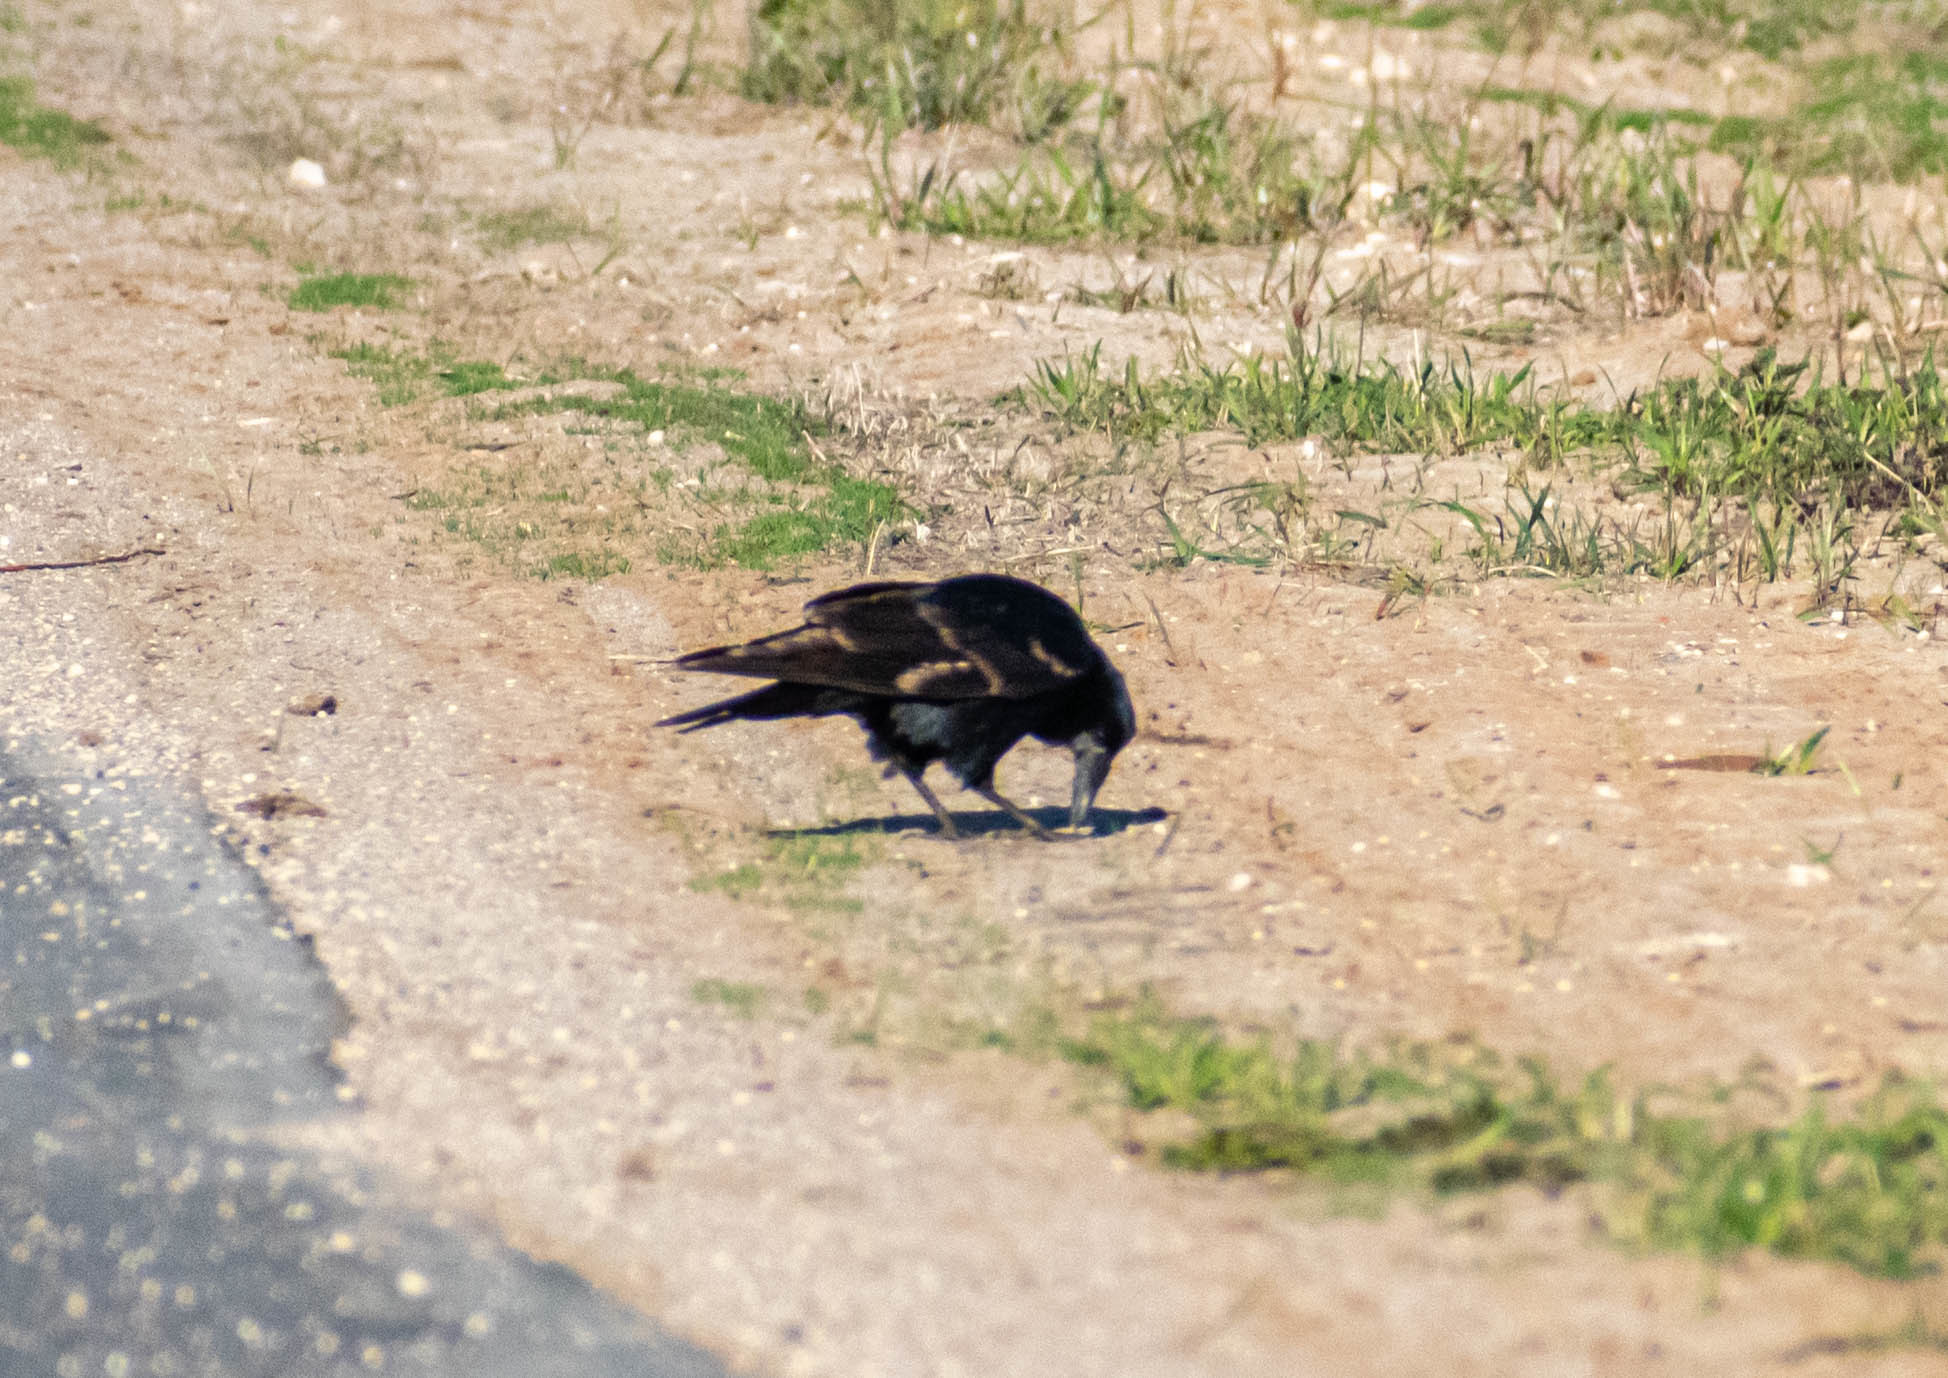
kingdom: Animalia
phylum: Chordata
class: Aves
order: Passeriformes
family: Corvidae
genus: Corvus
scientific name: Corvus frugilegus
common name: Rook
